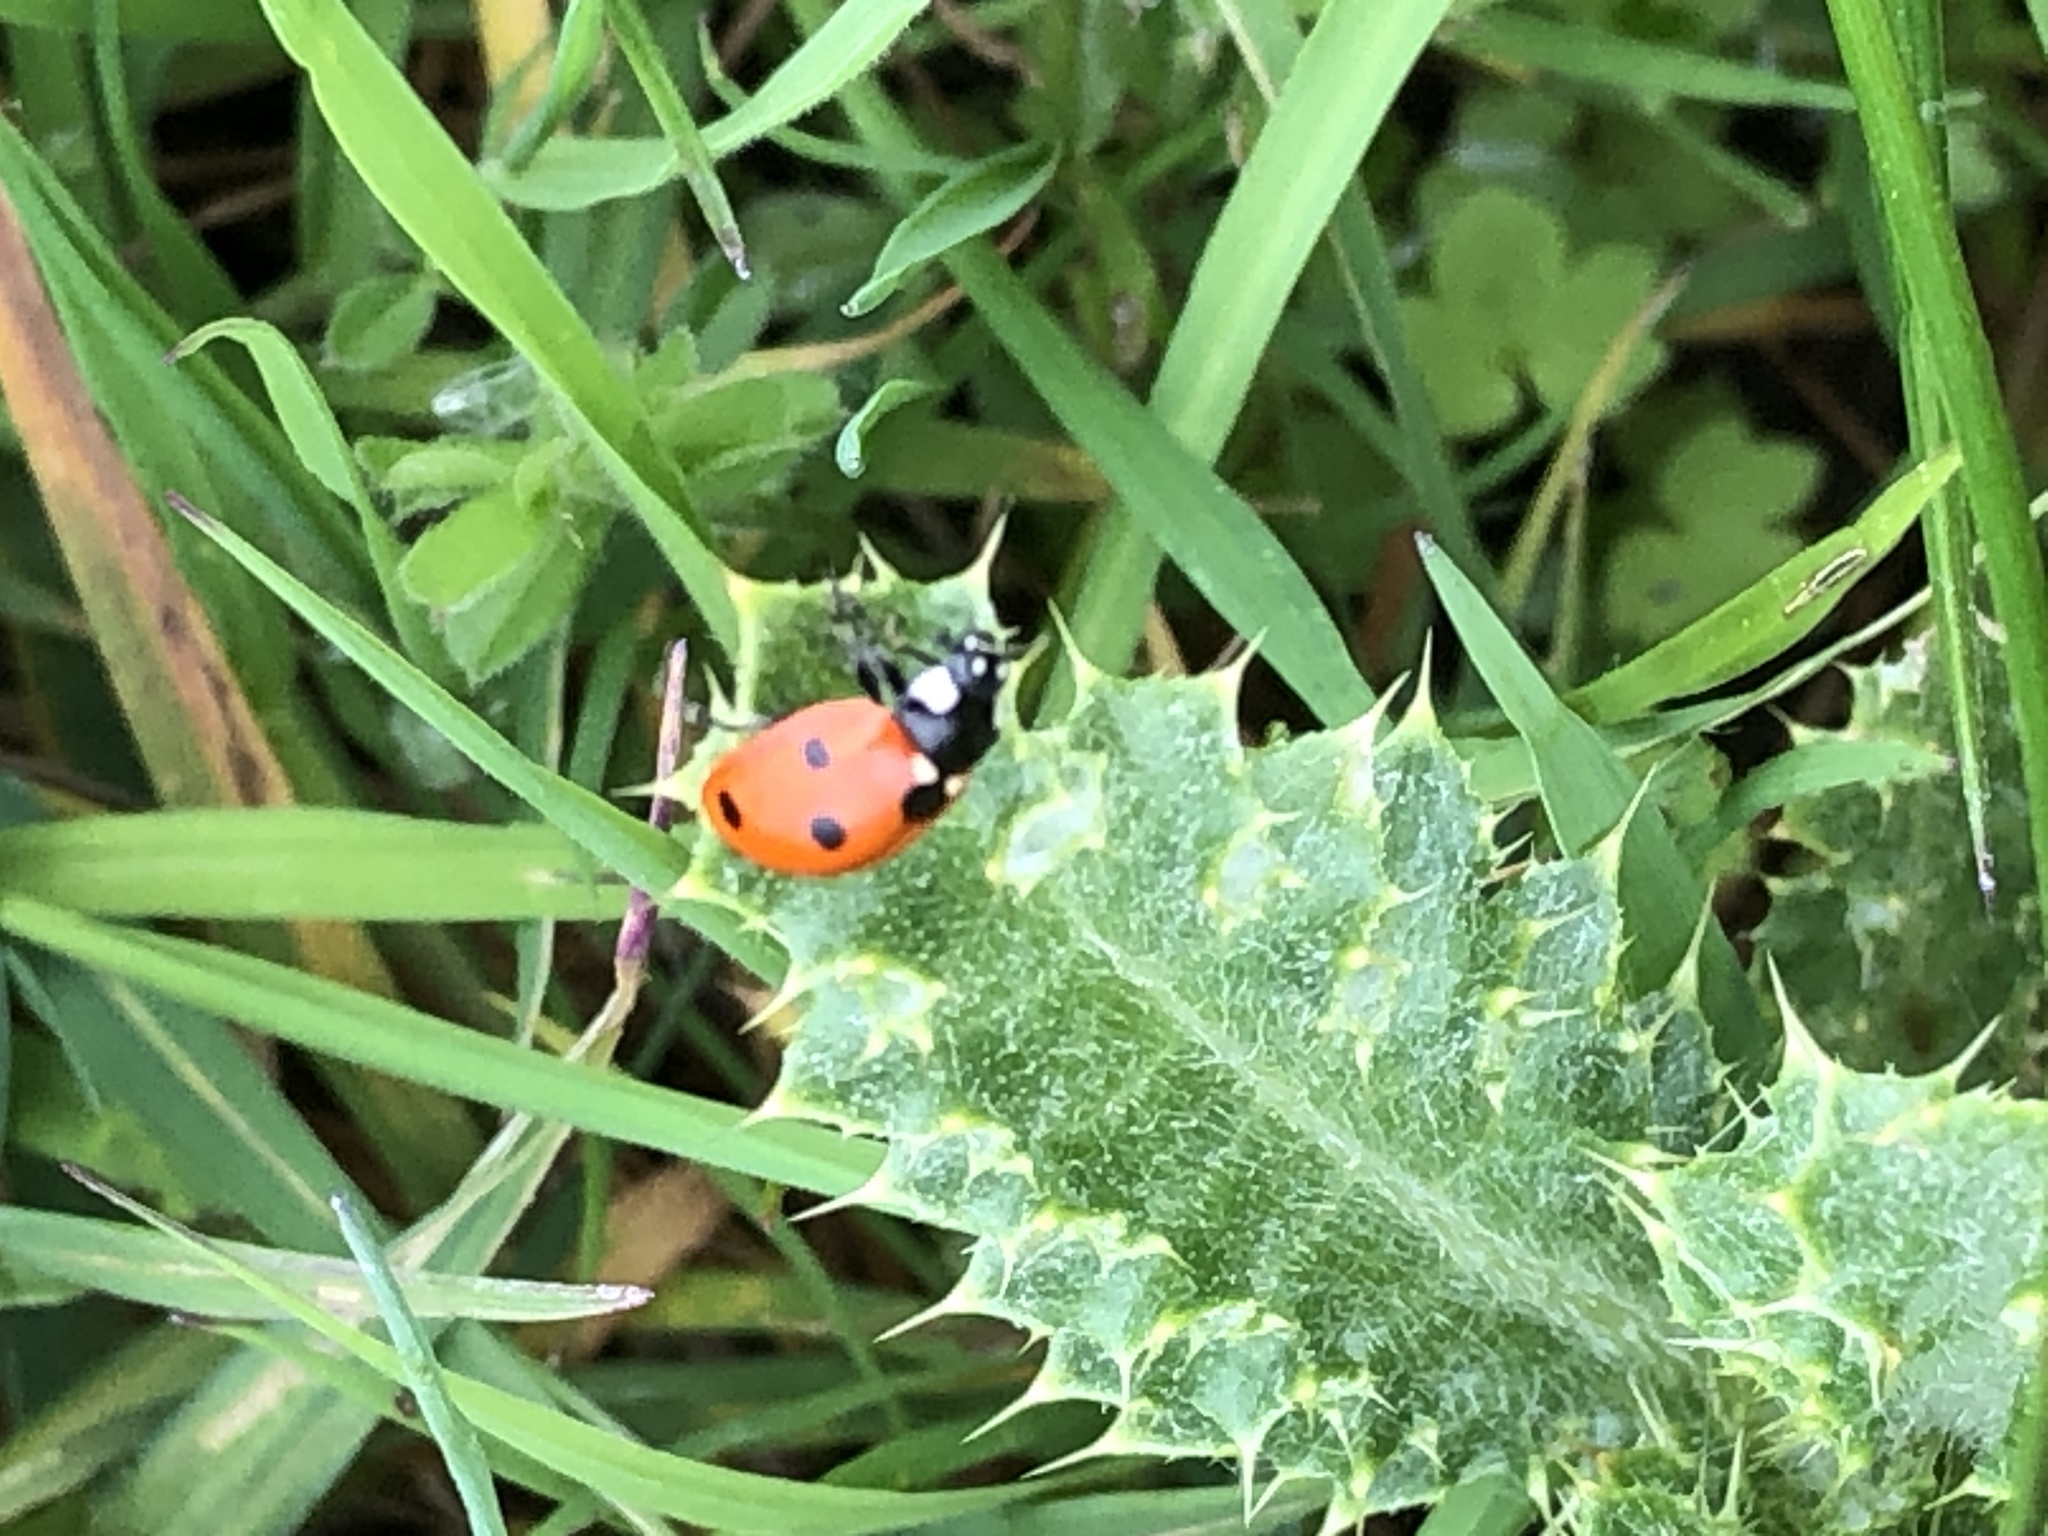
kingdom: Animalia
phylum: Arthropoda
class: Insecta
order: Coleoptera
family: Coccinellidae
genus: Coccinella
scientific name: Coccinella septempunctata
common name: Sevenspotted lady beetle
